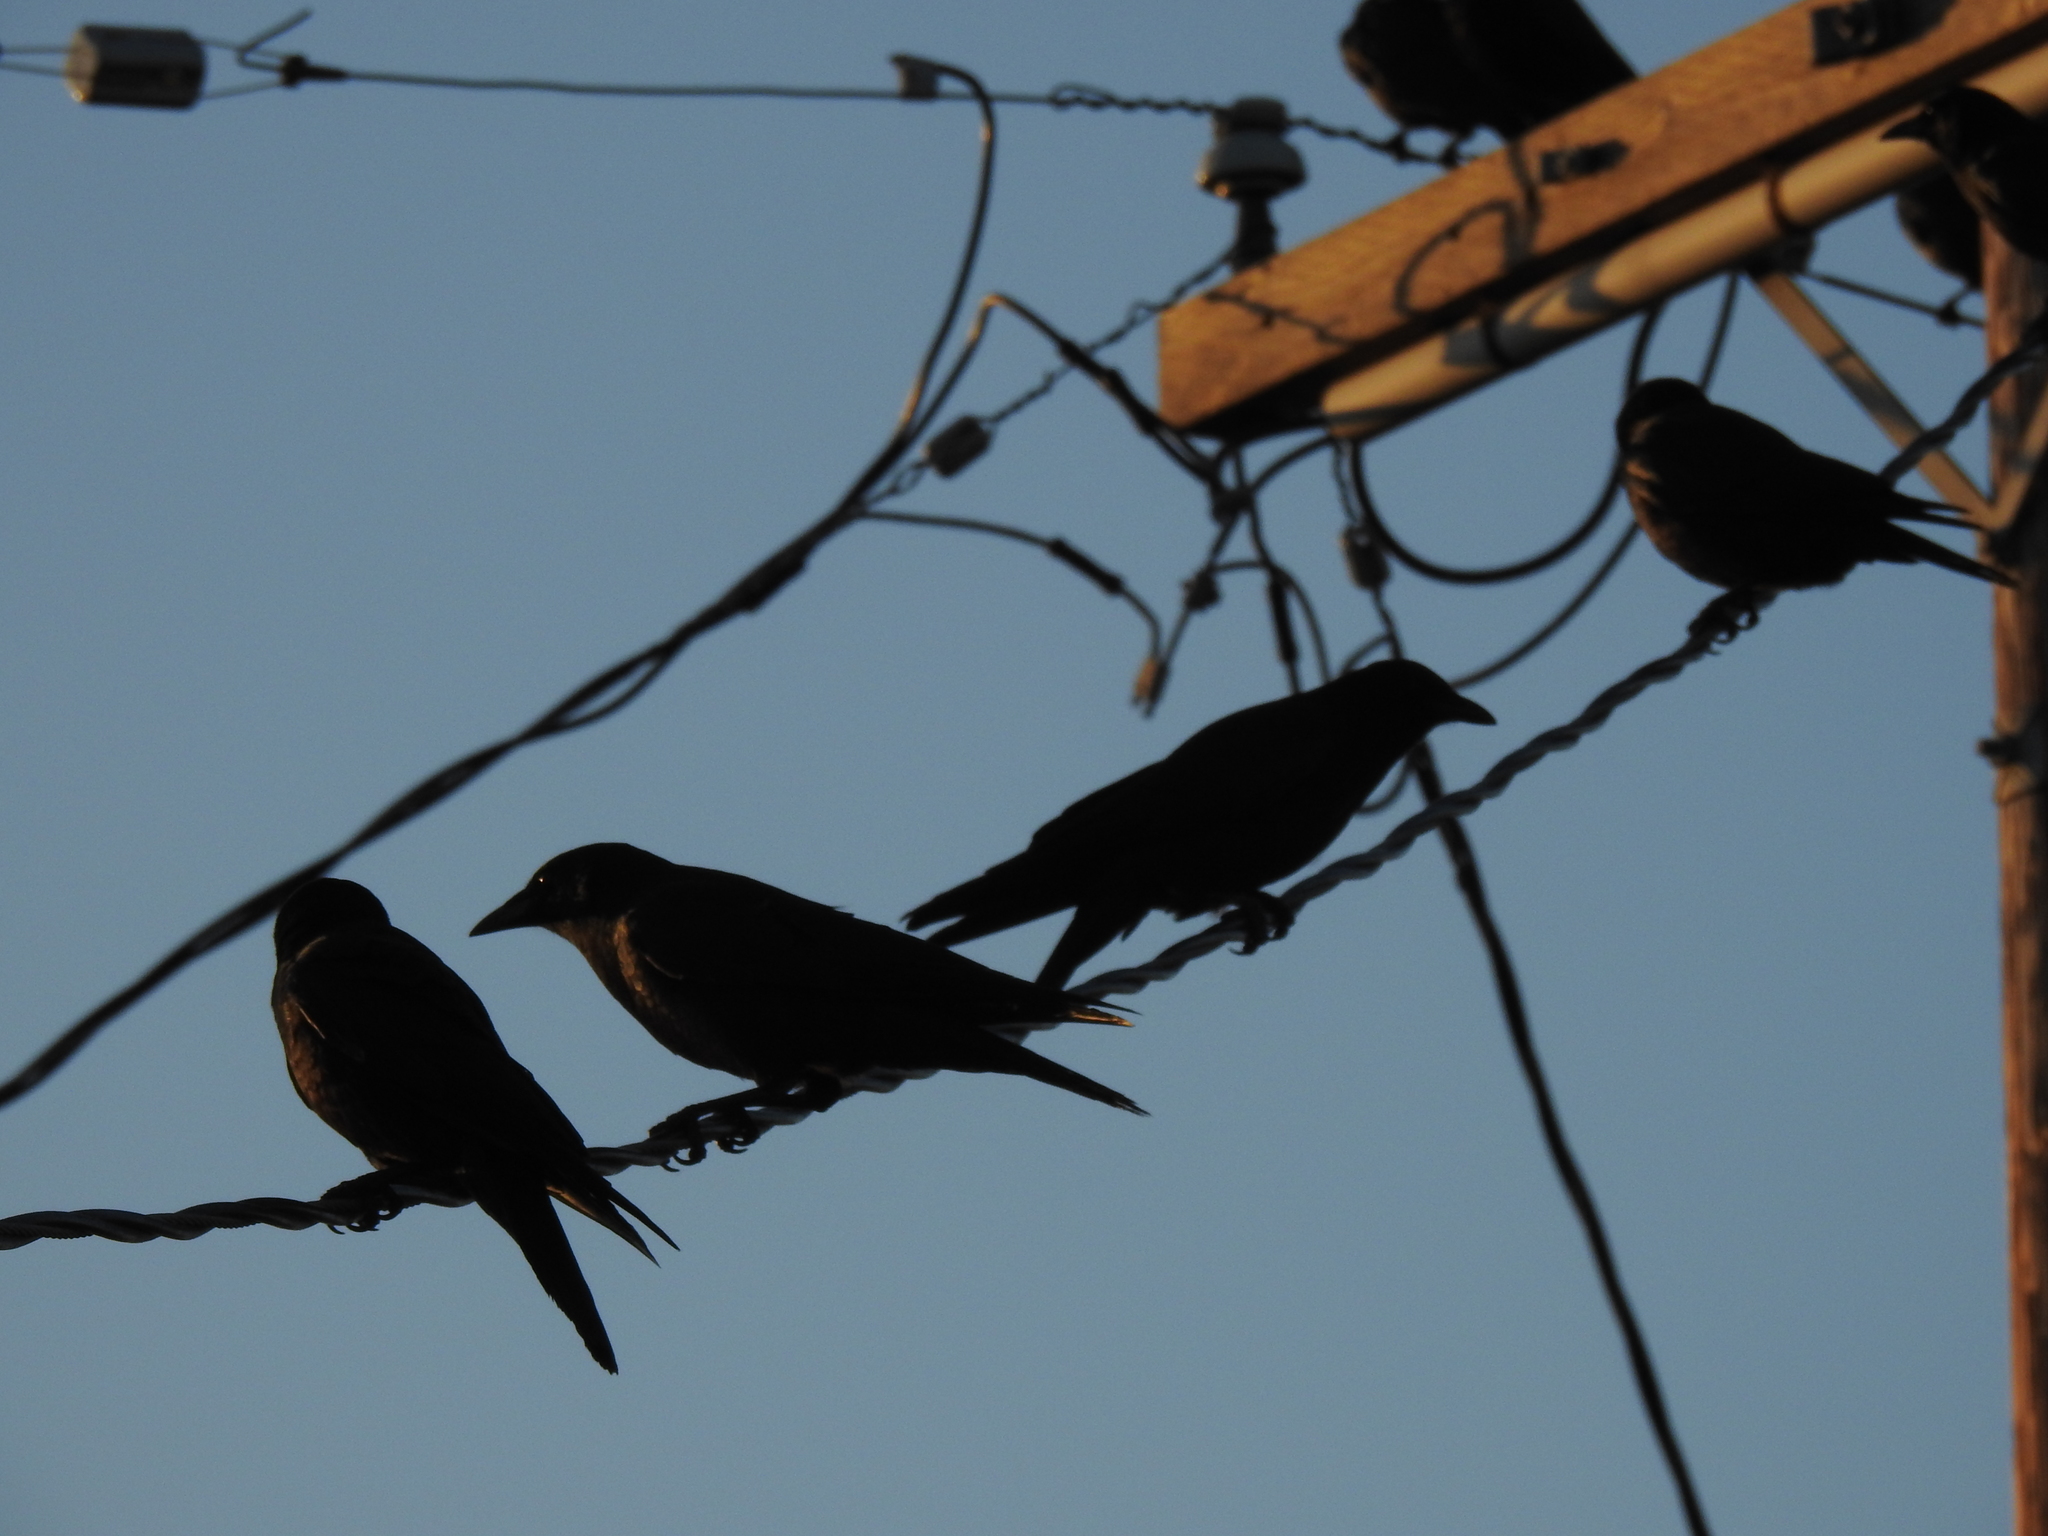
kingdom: Animalia
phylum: Chordata
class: Aves
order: Passeriformes
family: Corvidae
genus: Corvus
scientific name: Corvus brachyrhynchos
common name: American crow
